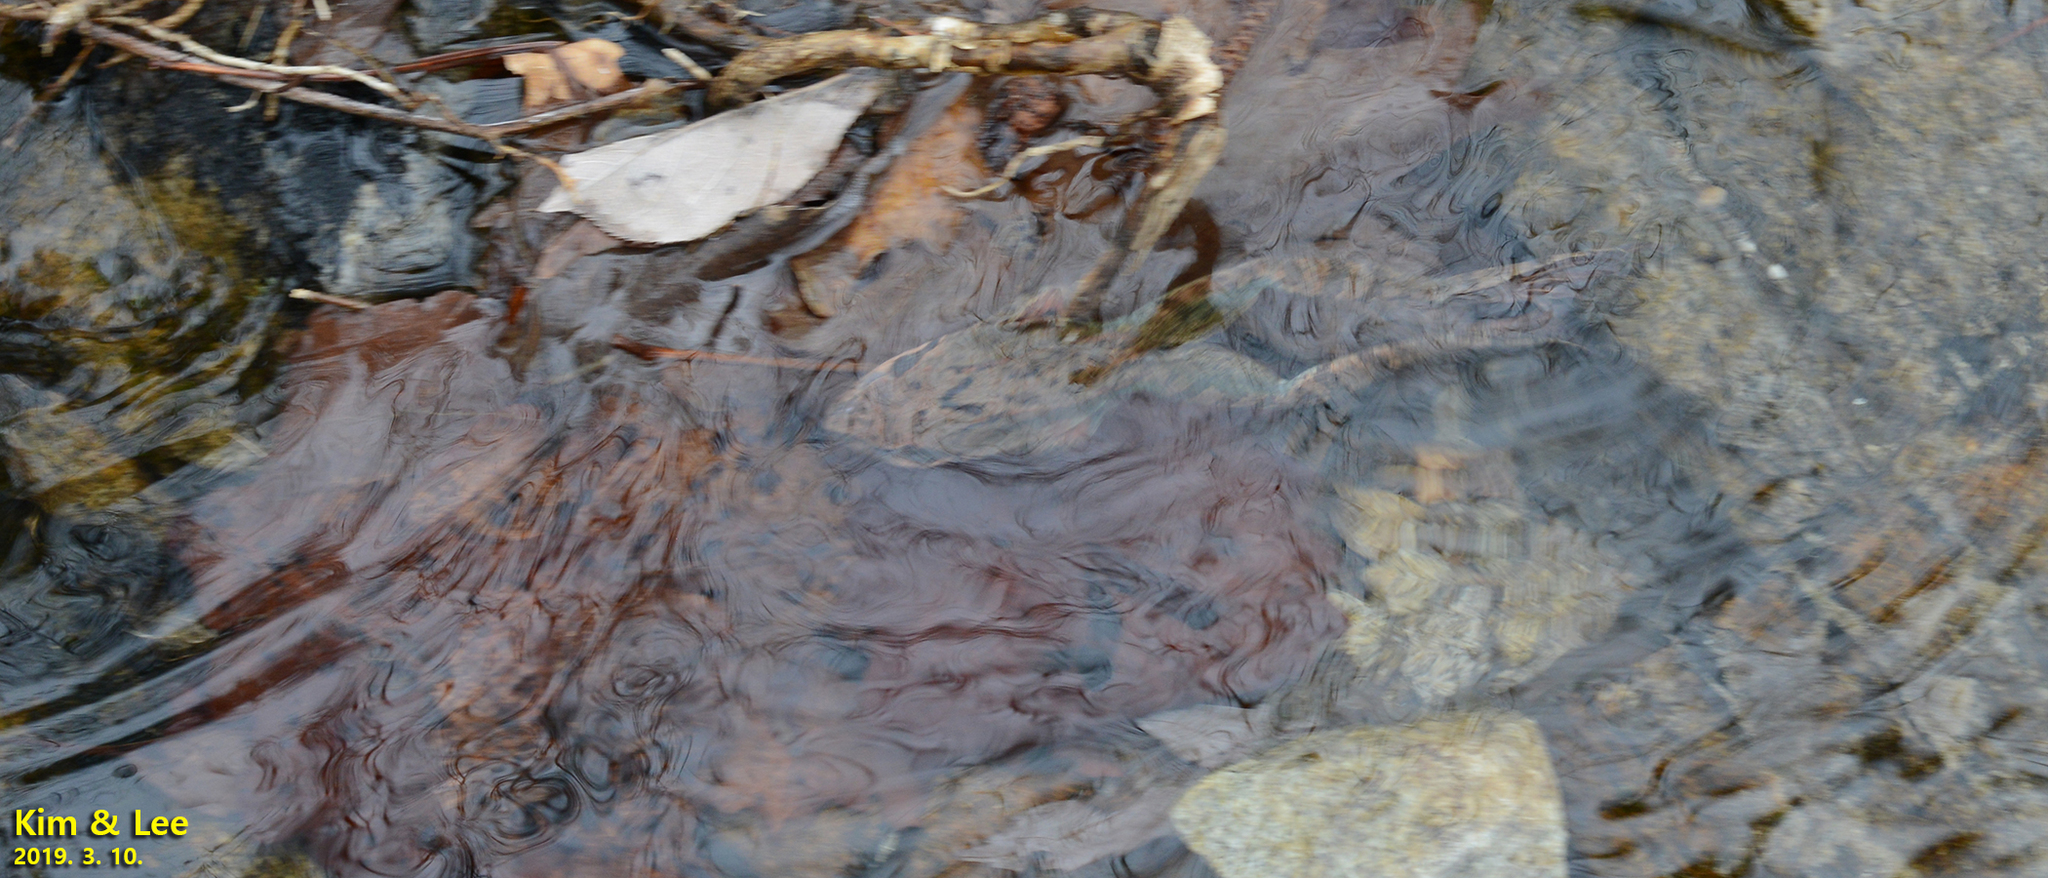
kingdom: Animalia
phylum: Chordata
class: Amphibia
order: Anura
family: Ranidae
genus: Rana
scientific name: Rana dybowskii
